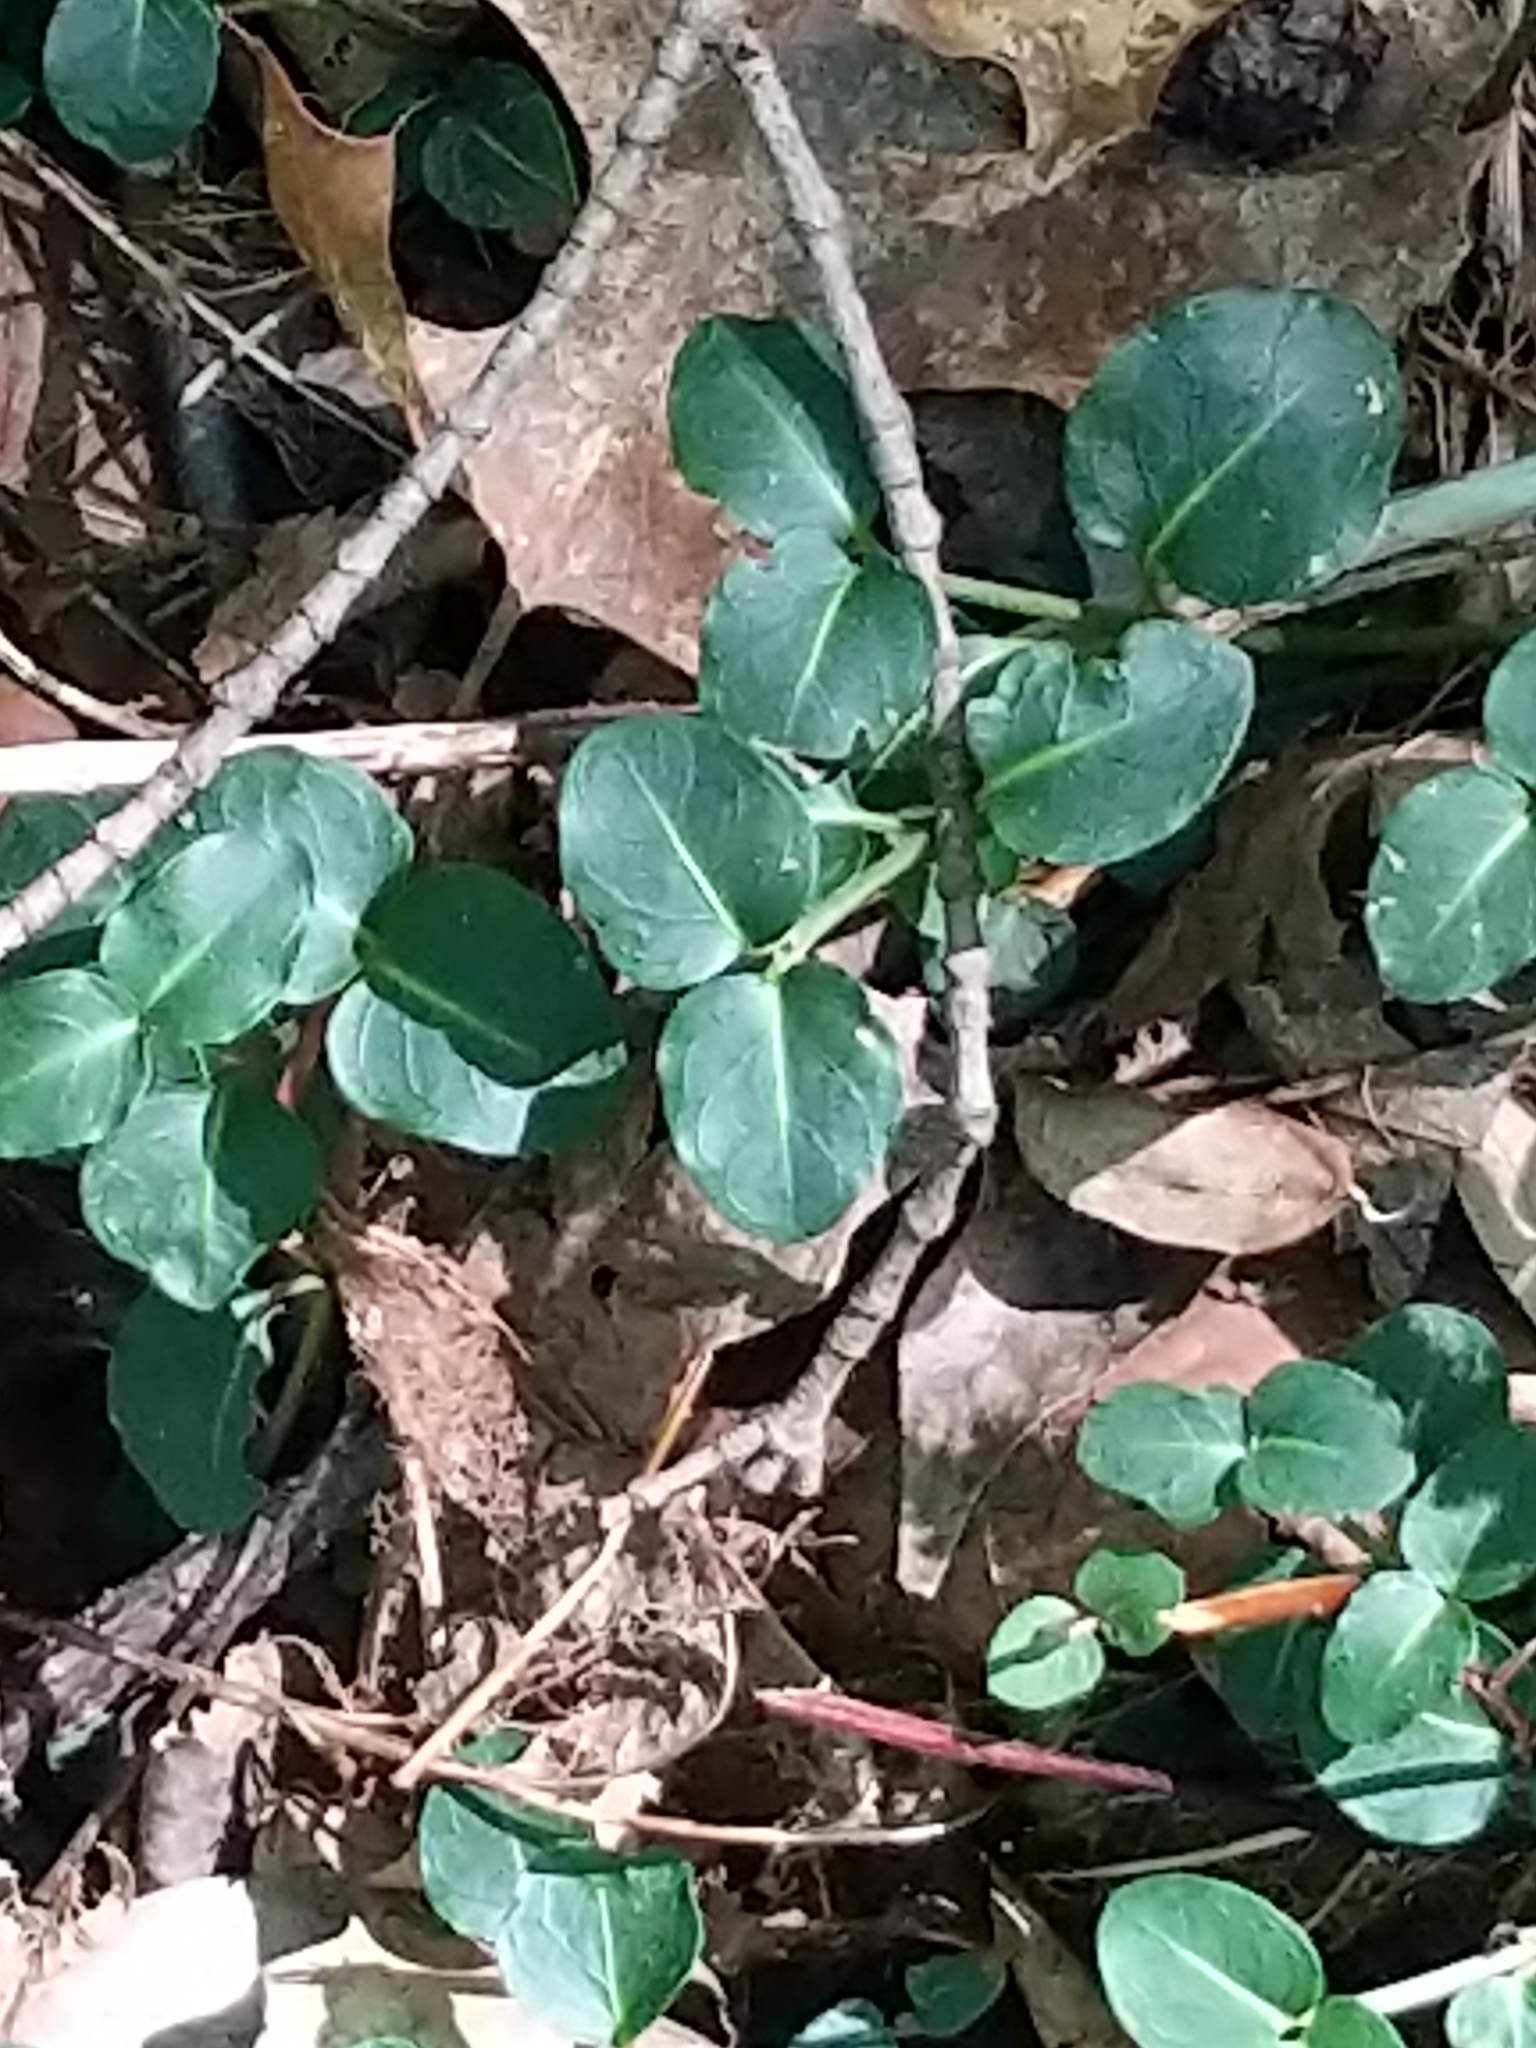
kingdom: Plantae
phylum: Tracheophyta
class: Magnoliopsida
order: Gentianales
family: Rubiaceae
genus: Mitchella
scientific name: Mitchella repens
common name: Partridge-berry
